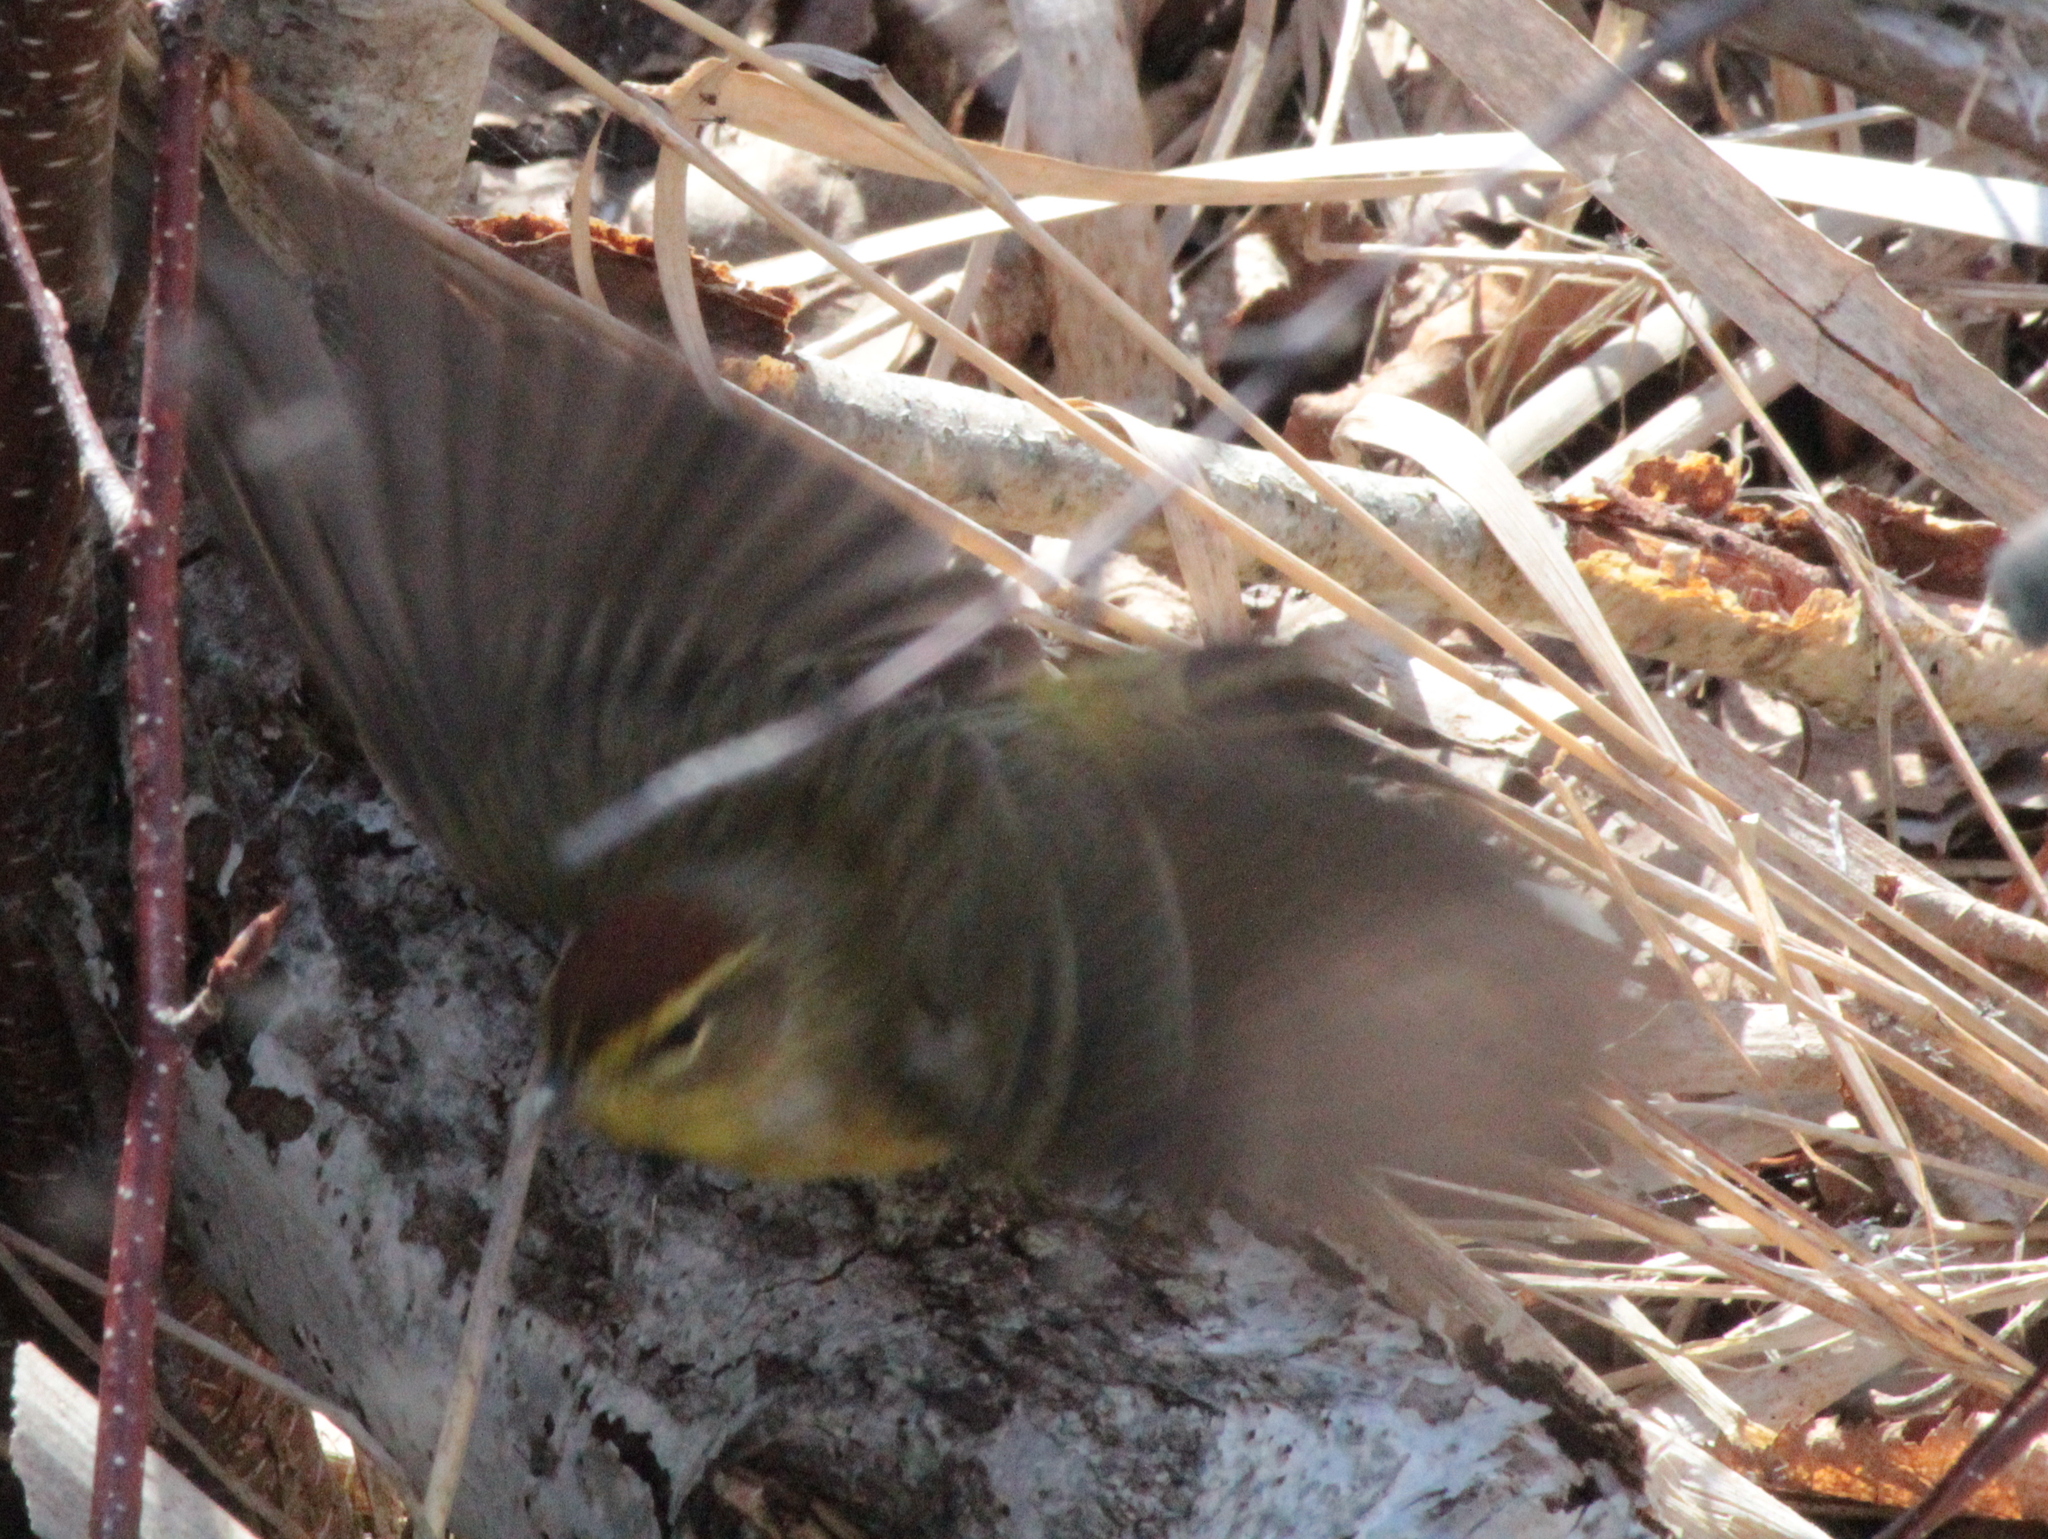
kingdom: Animalia
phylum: Chordata
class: Aves
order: Passeriformes
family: Parulidae
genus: Setophaga
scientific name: Setophaga palmarum
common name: Palm warbler
